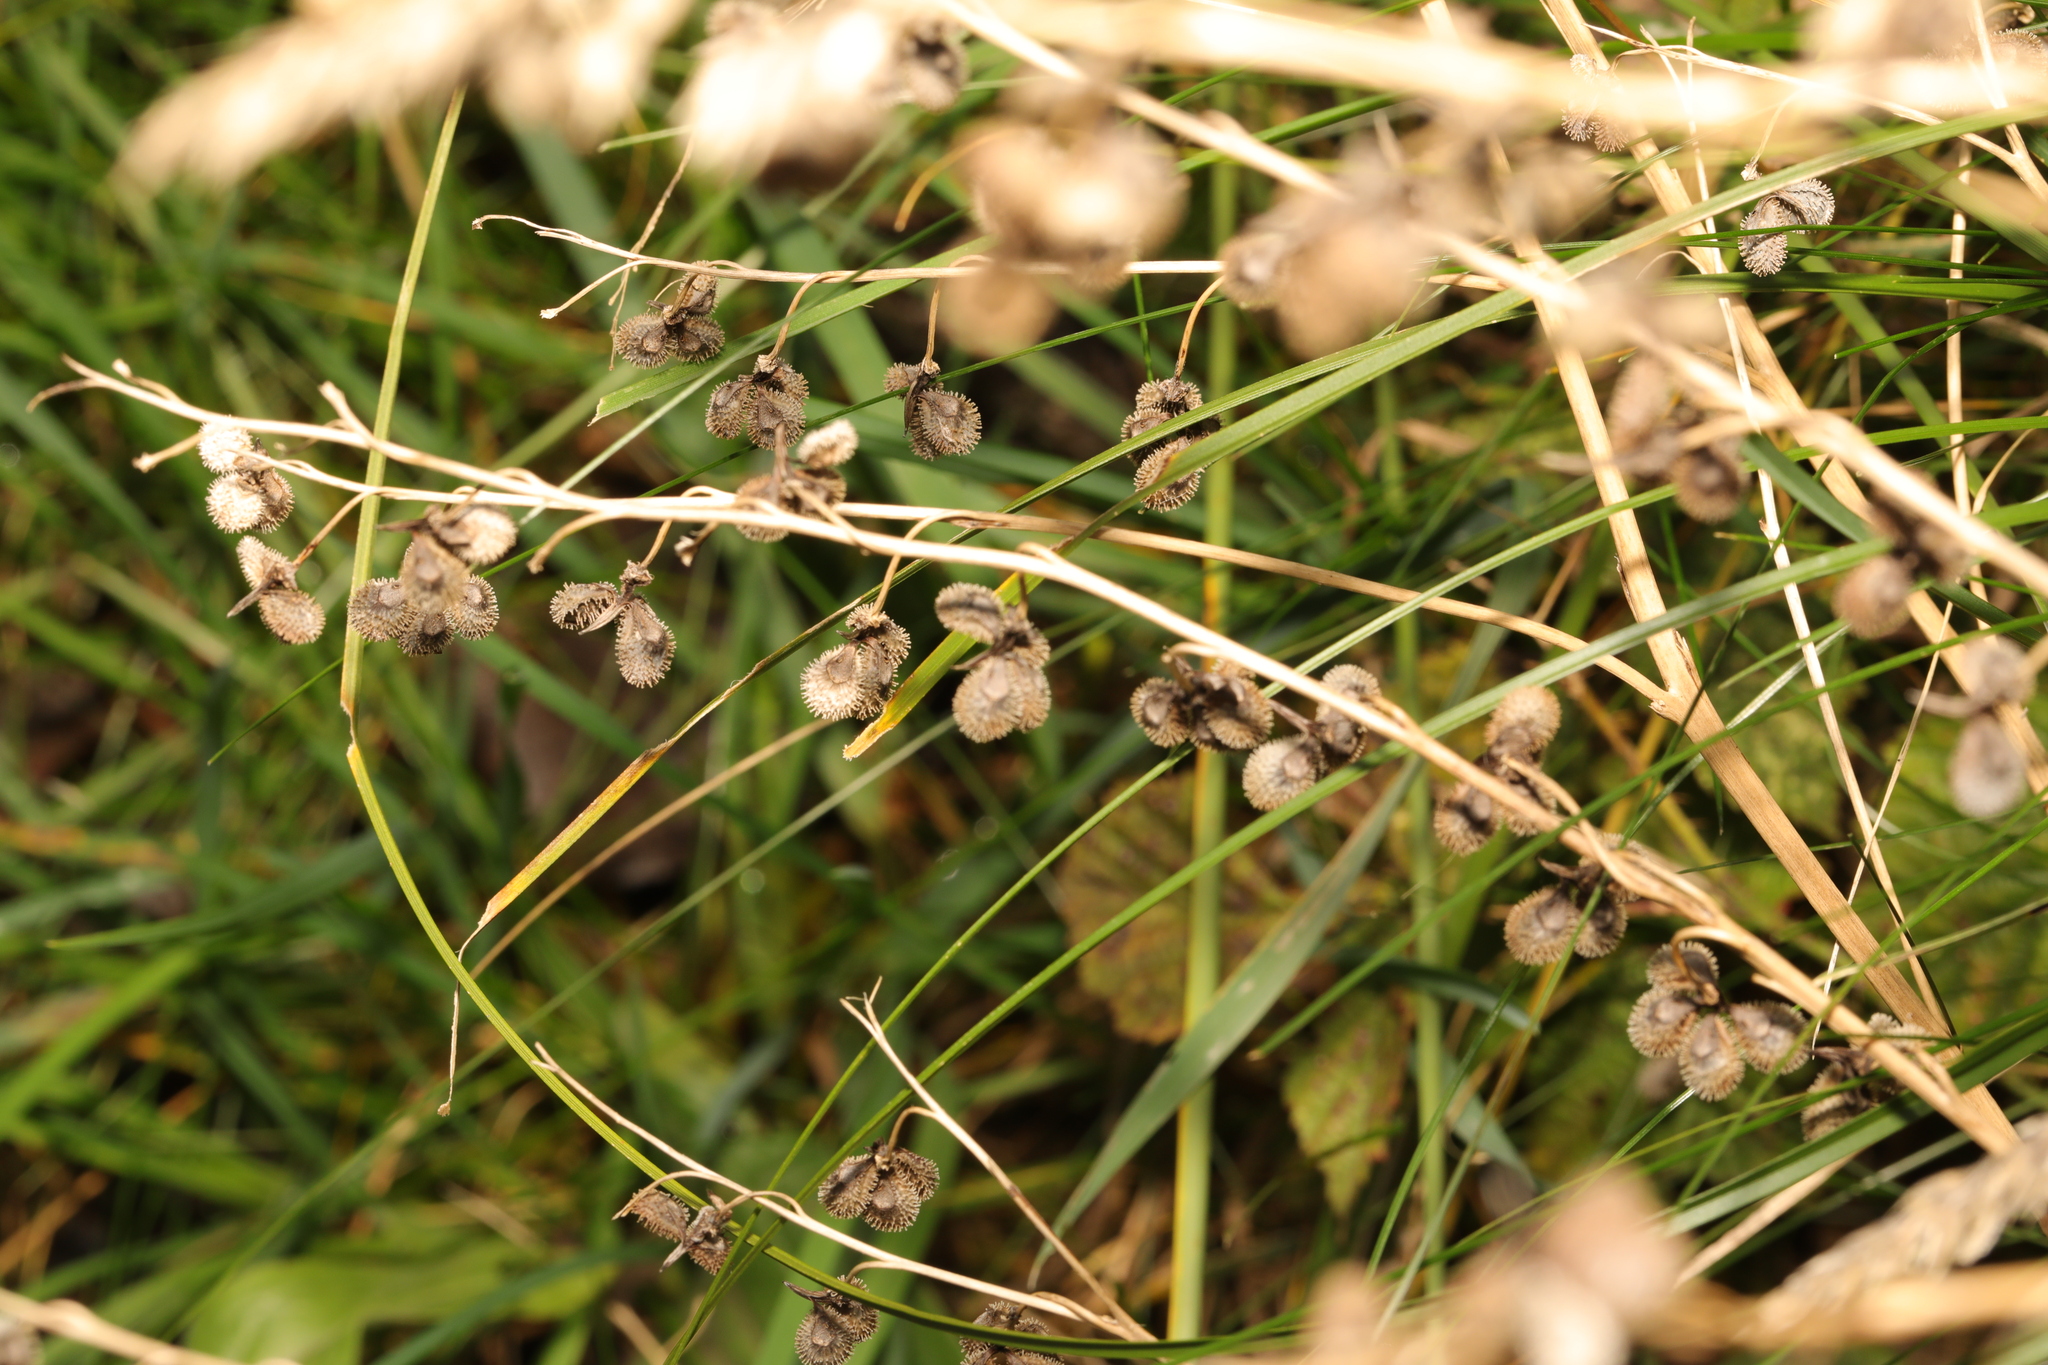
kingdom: Plantae
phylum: Tracheophyta
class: Magnoliopsida
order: Boraginales
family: Boraginaceae
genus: Cynoglossum
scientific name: Cynoglossum officinale
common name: Hound's-tongue
